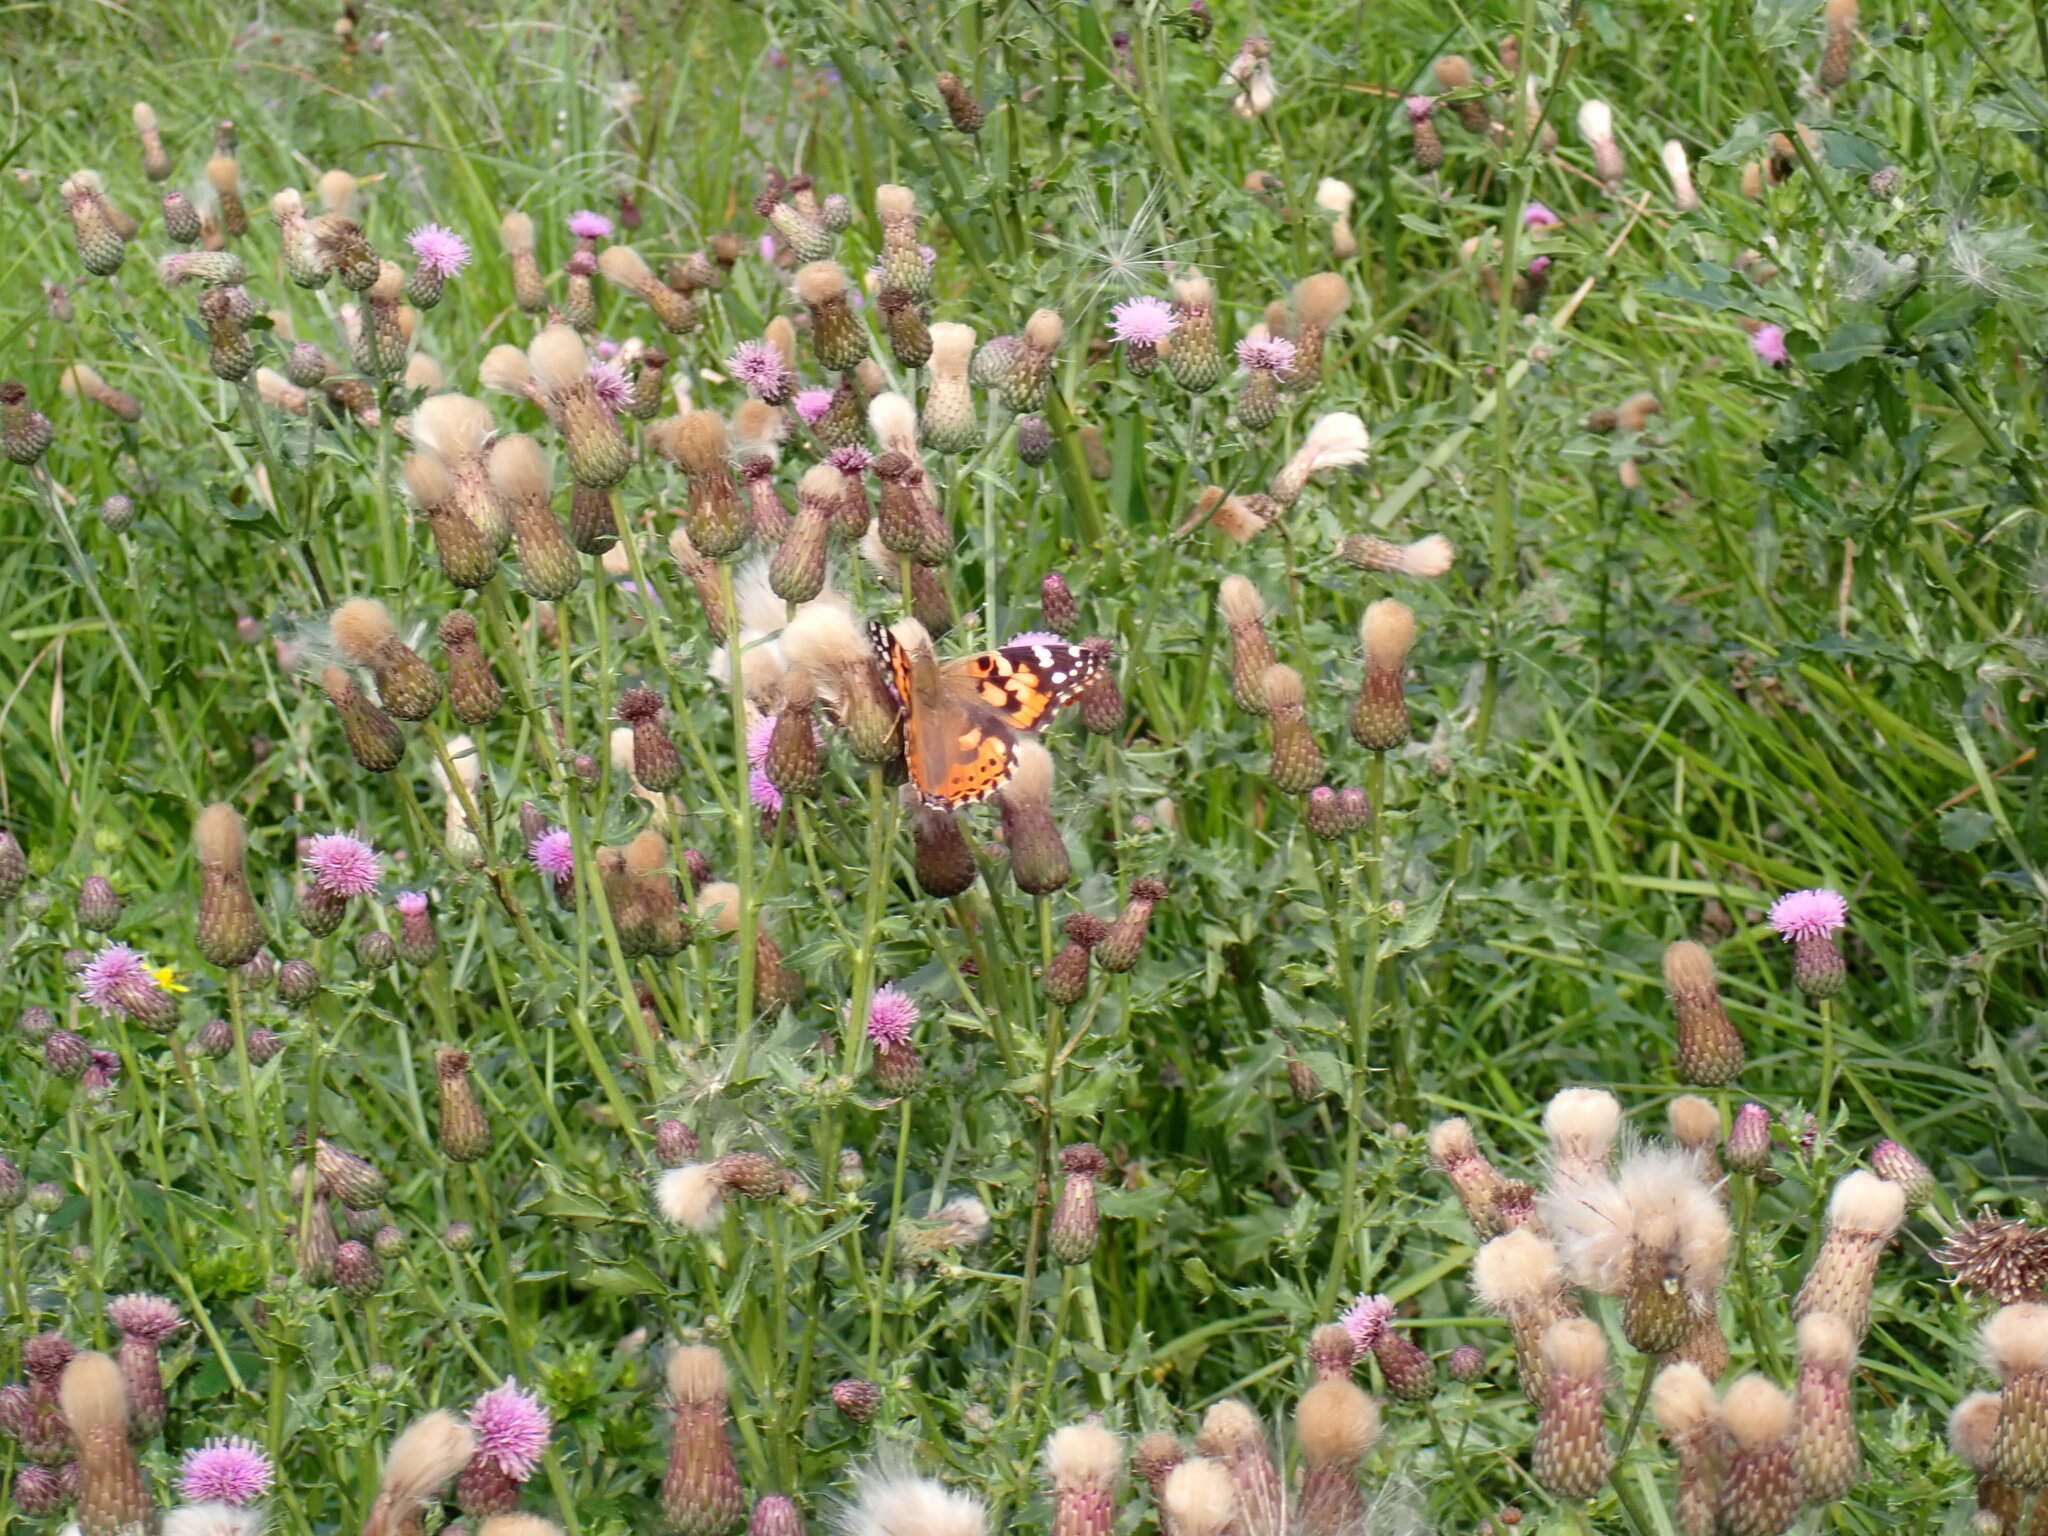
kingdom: Animalia
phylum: Arthropoda
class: Insecta
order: Lepidoptera
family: Nymphalidae
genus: Vanessa
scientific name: Vanessa cardui
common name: Painted lady
